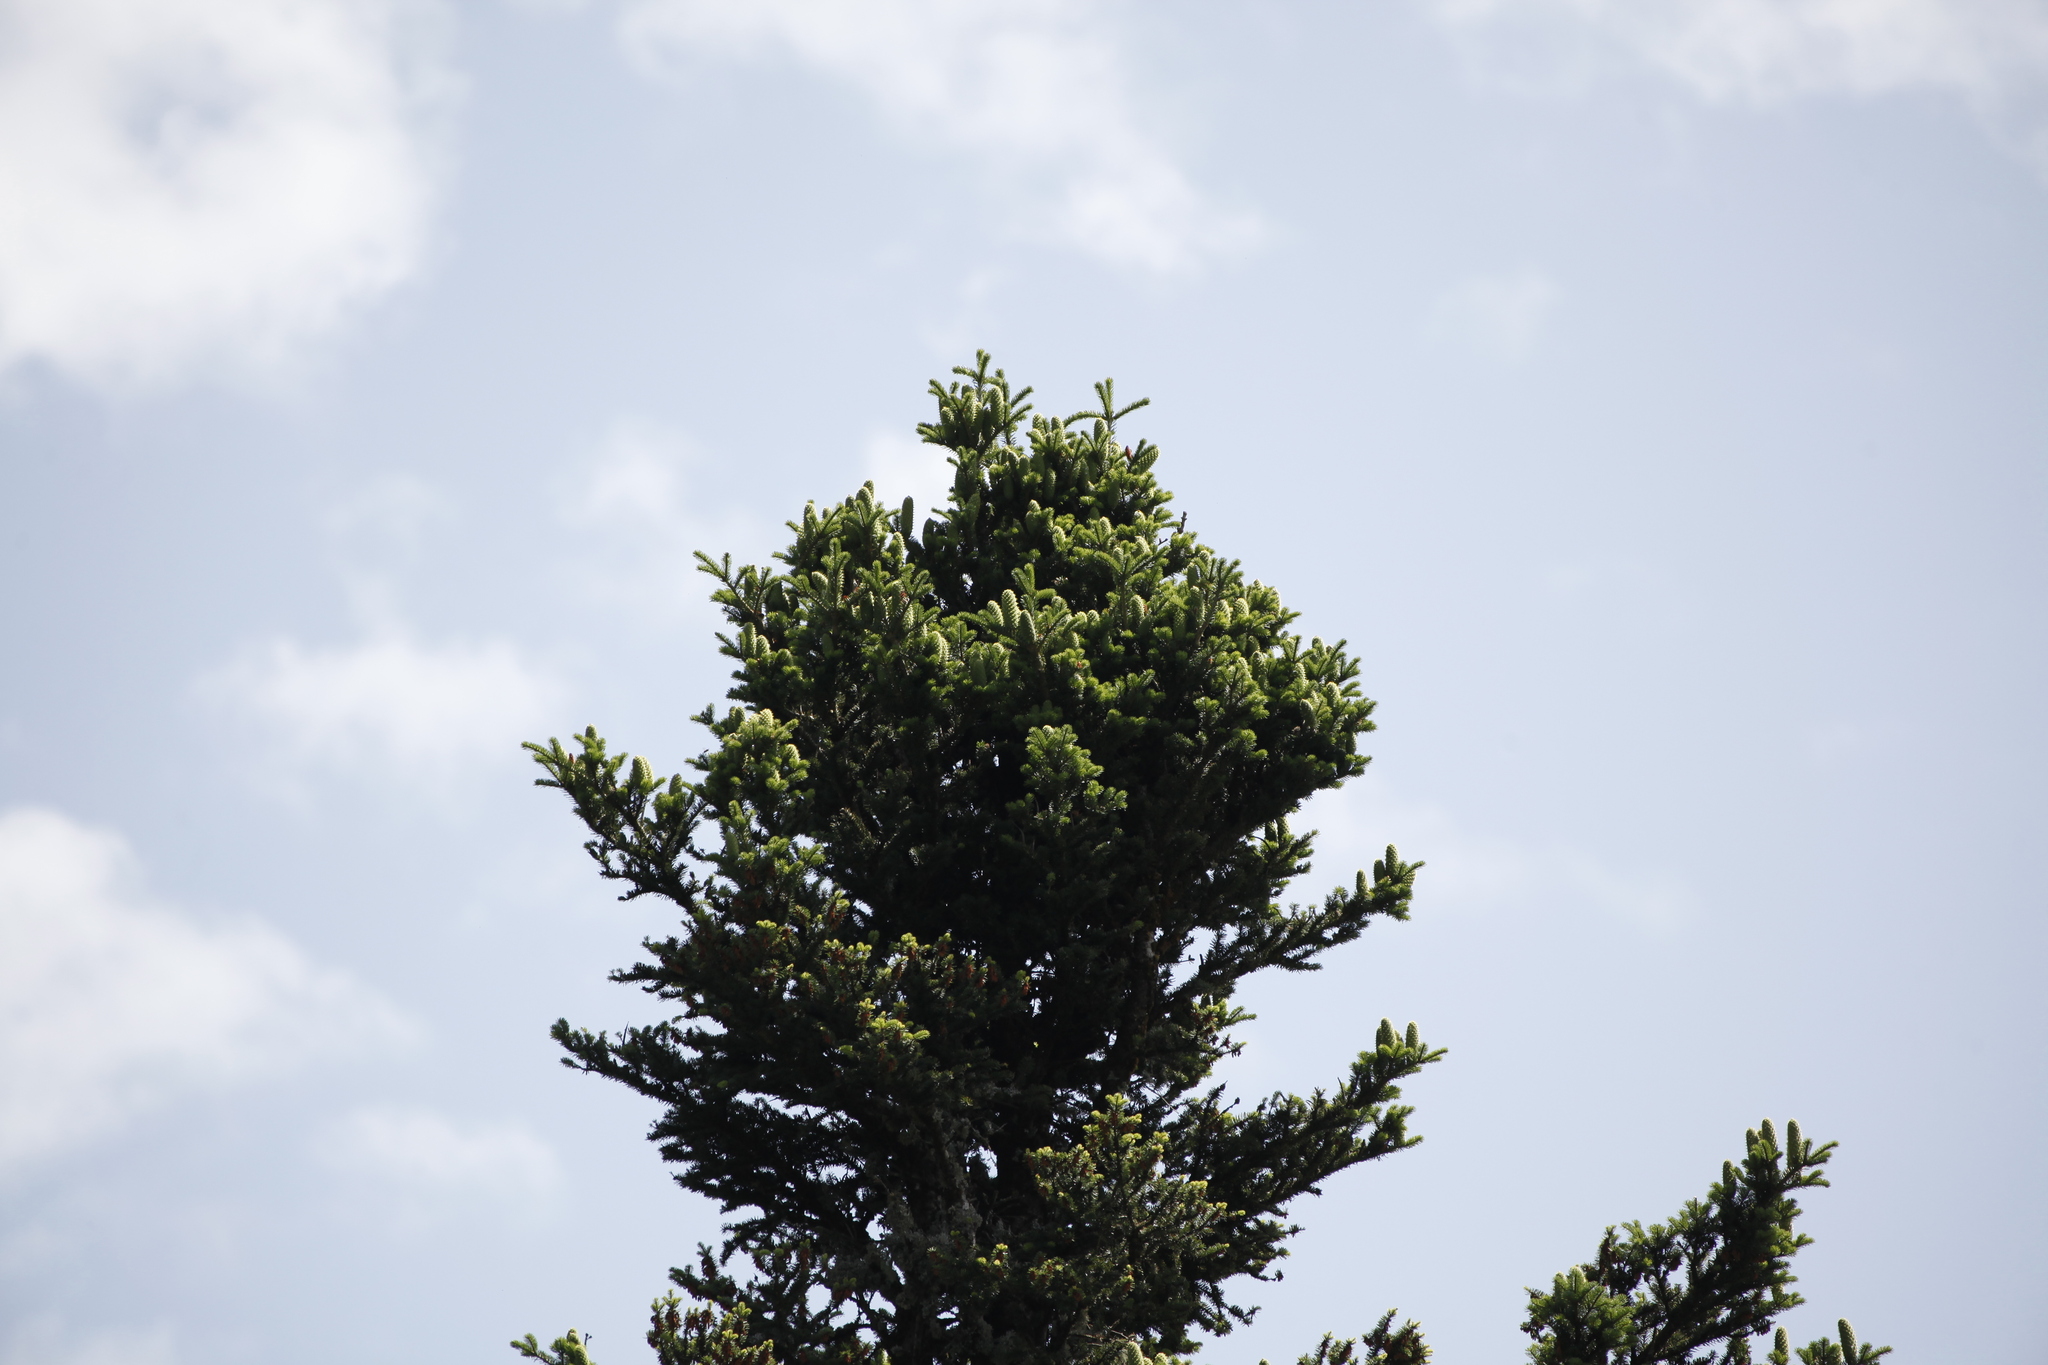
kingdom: Plantae
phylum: Tracheophyta
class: Pinopsida
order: Pinales
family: Pinaceae
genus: Abies
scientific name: Abies alba
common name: Silver fir
